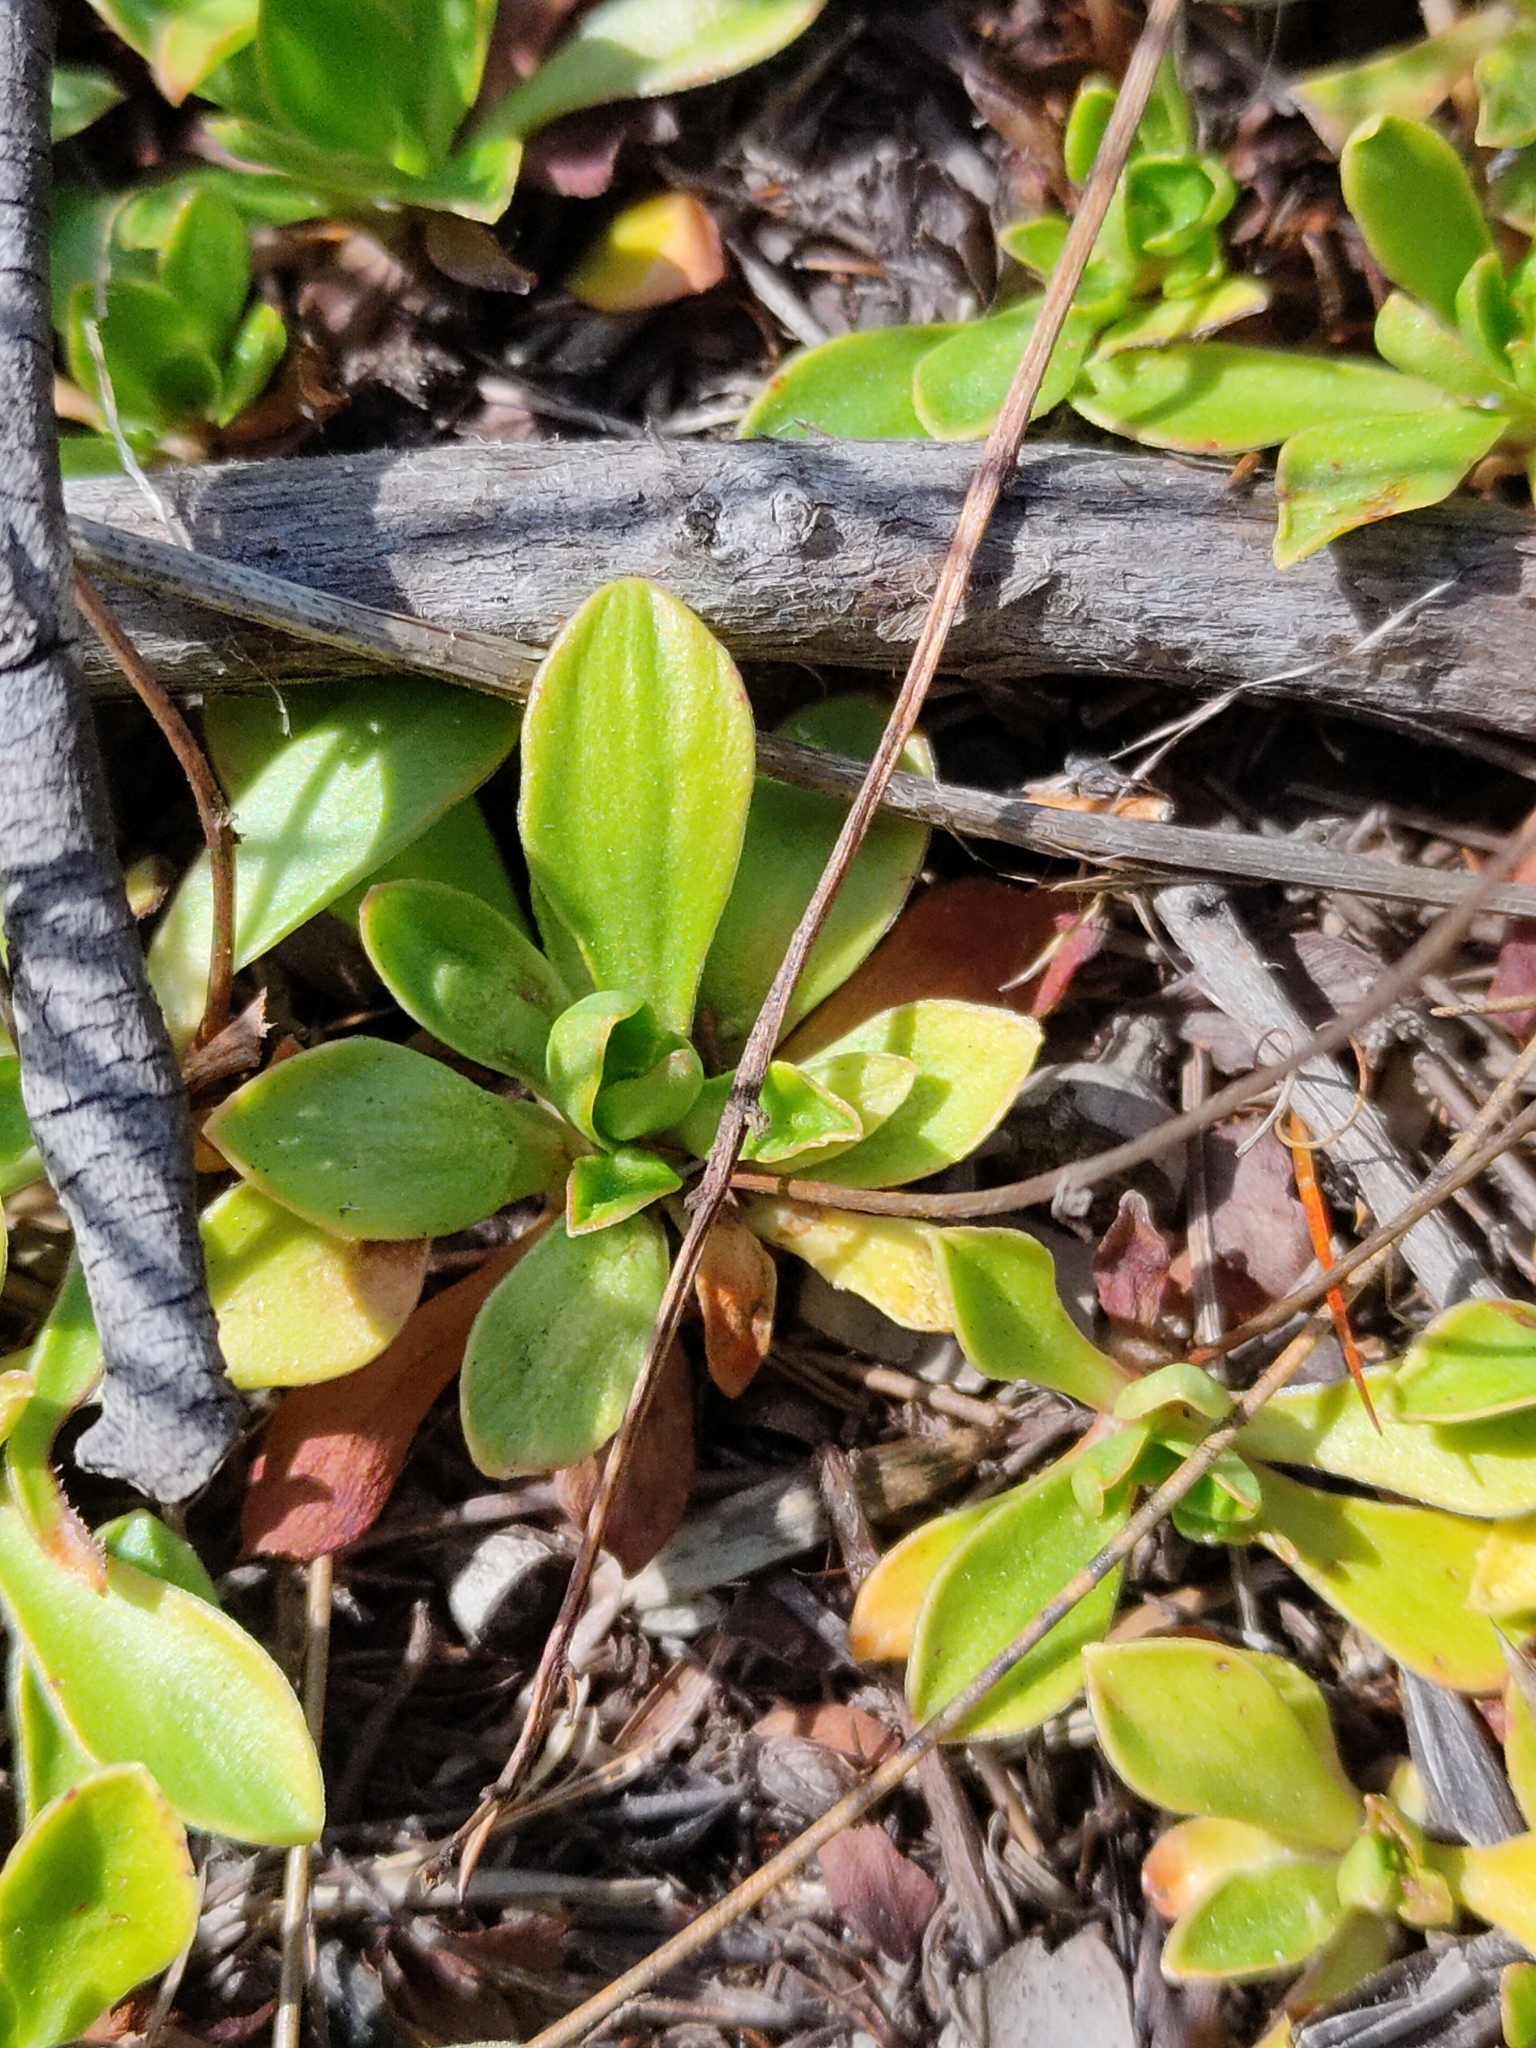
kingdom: Plantae
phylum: Tracheophyta
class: Magnoliopsida
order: Asterales
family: Stylidiaceae
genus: Stylidium
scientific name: Stylidium ornatum
